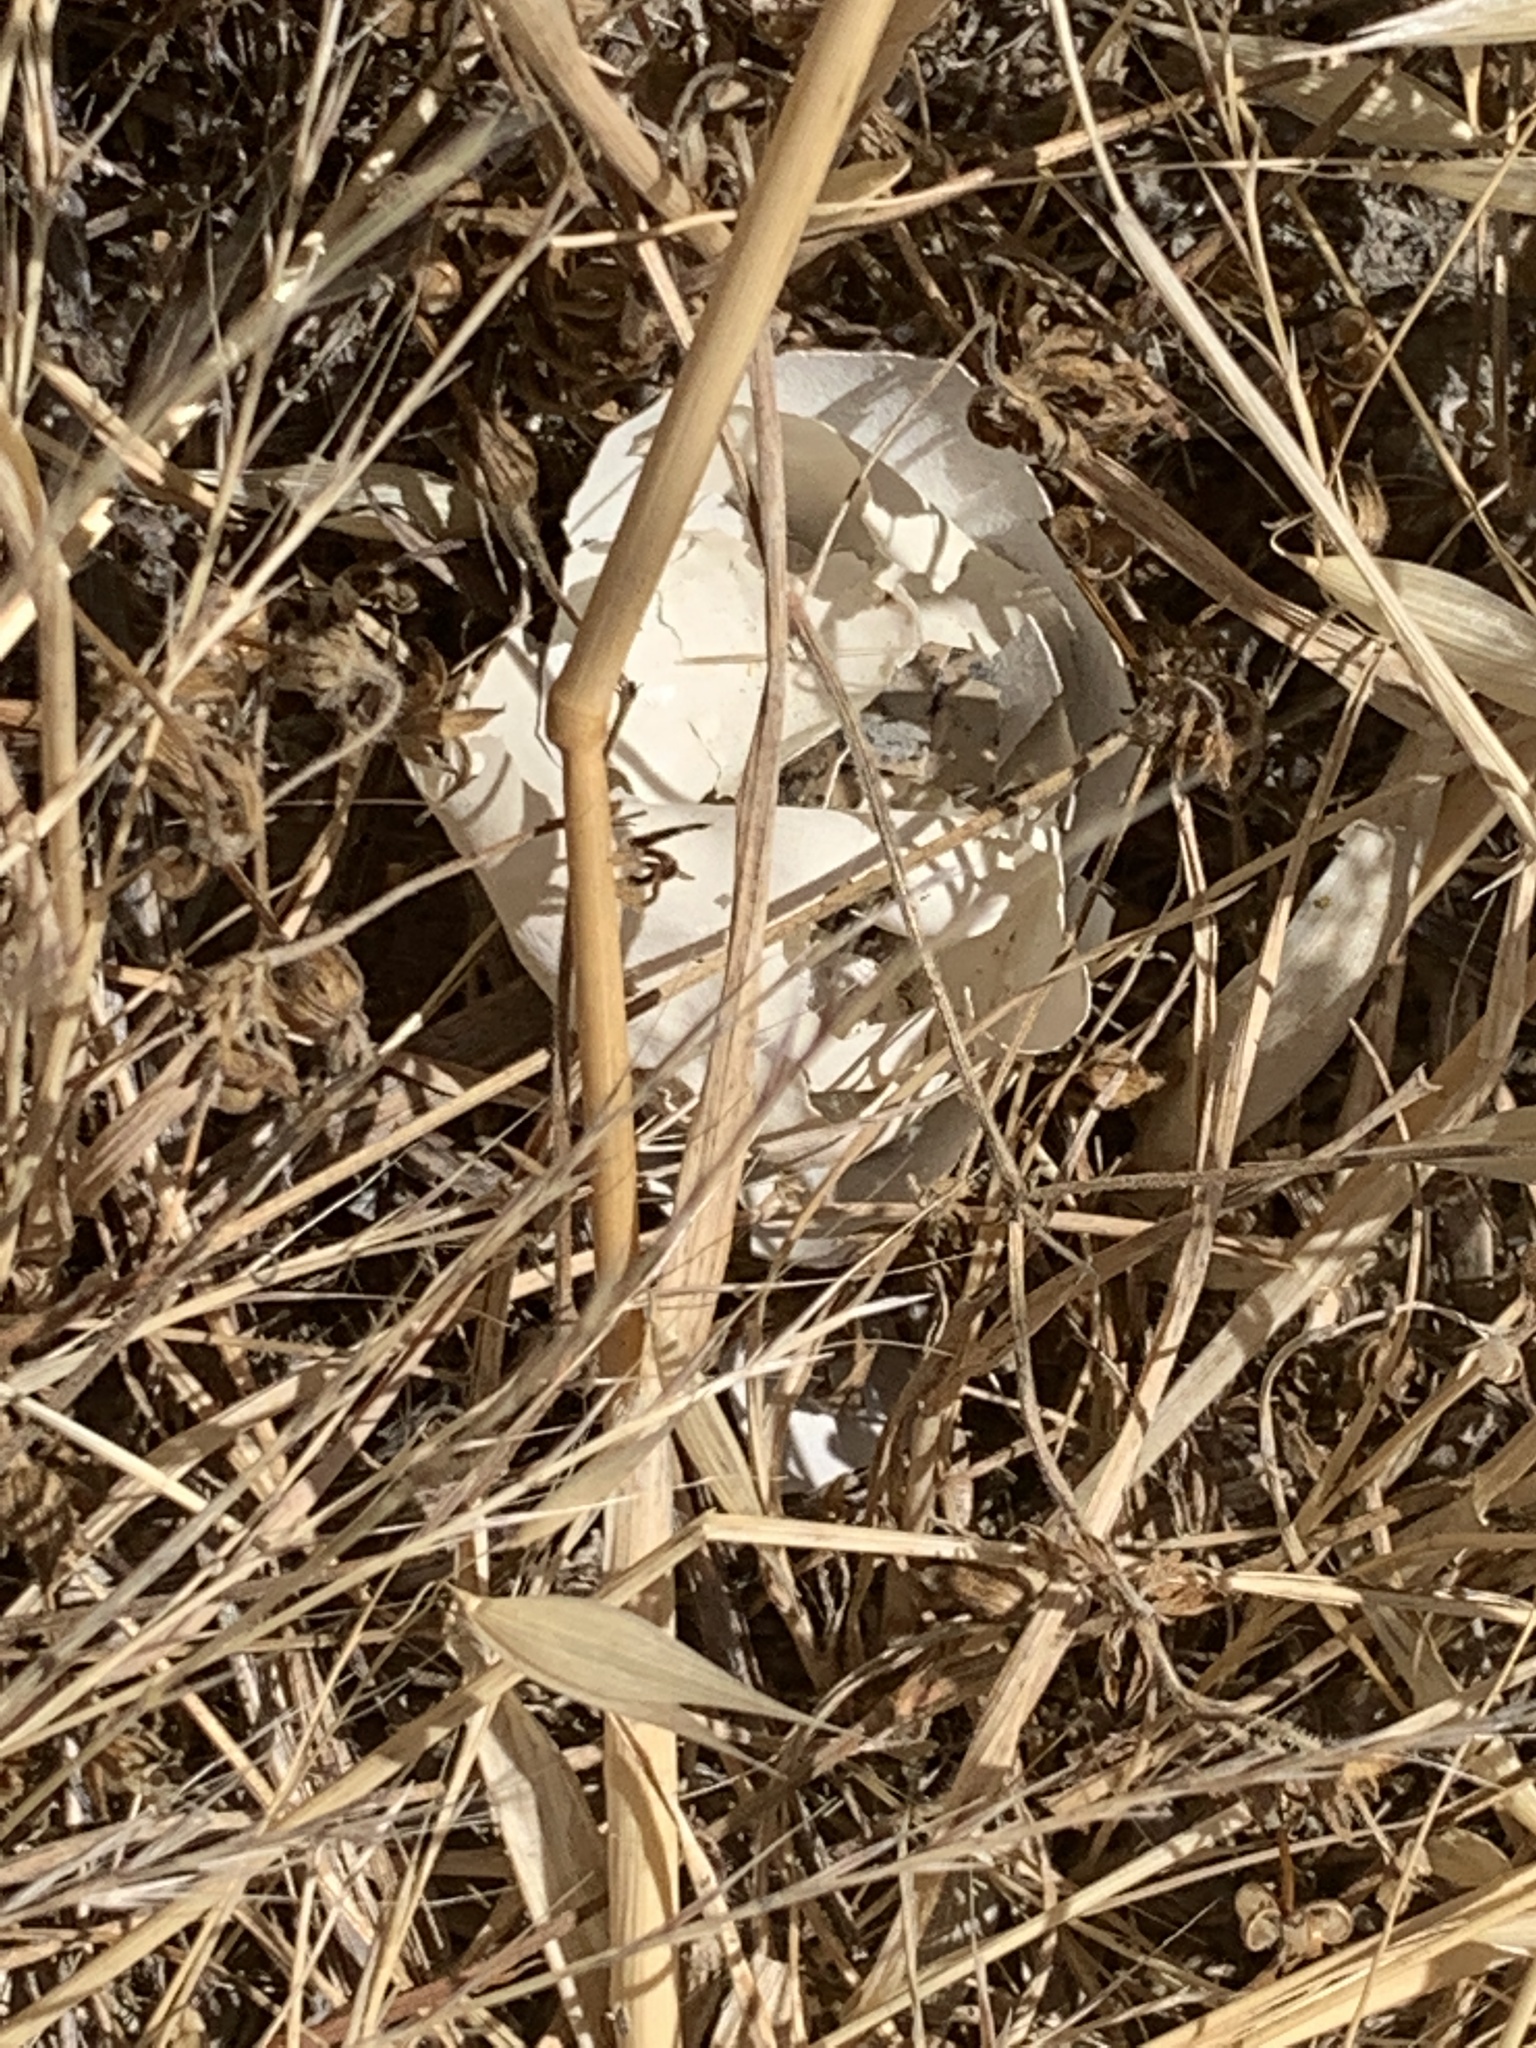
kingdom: Animalia
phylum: Chordata
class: Squamata
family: Colubridae
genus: Pituophis
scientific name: Pituophis catenifer
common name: Gopher snake
